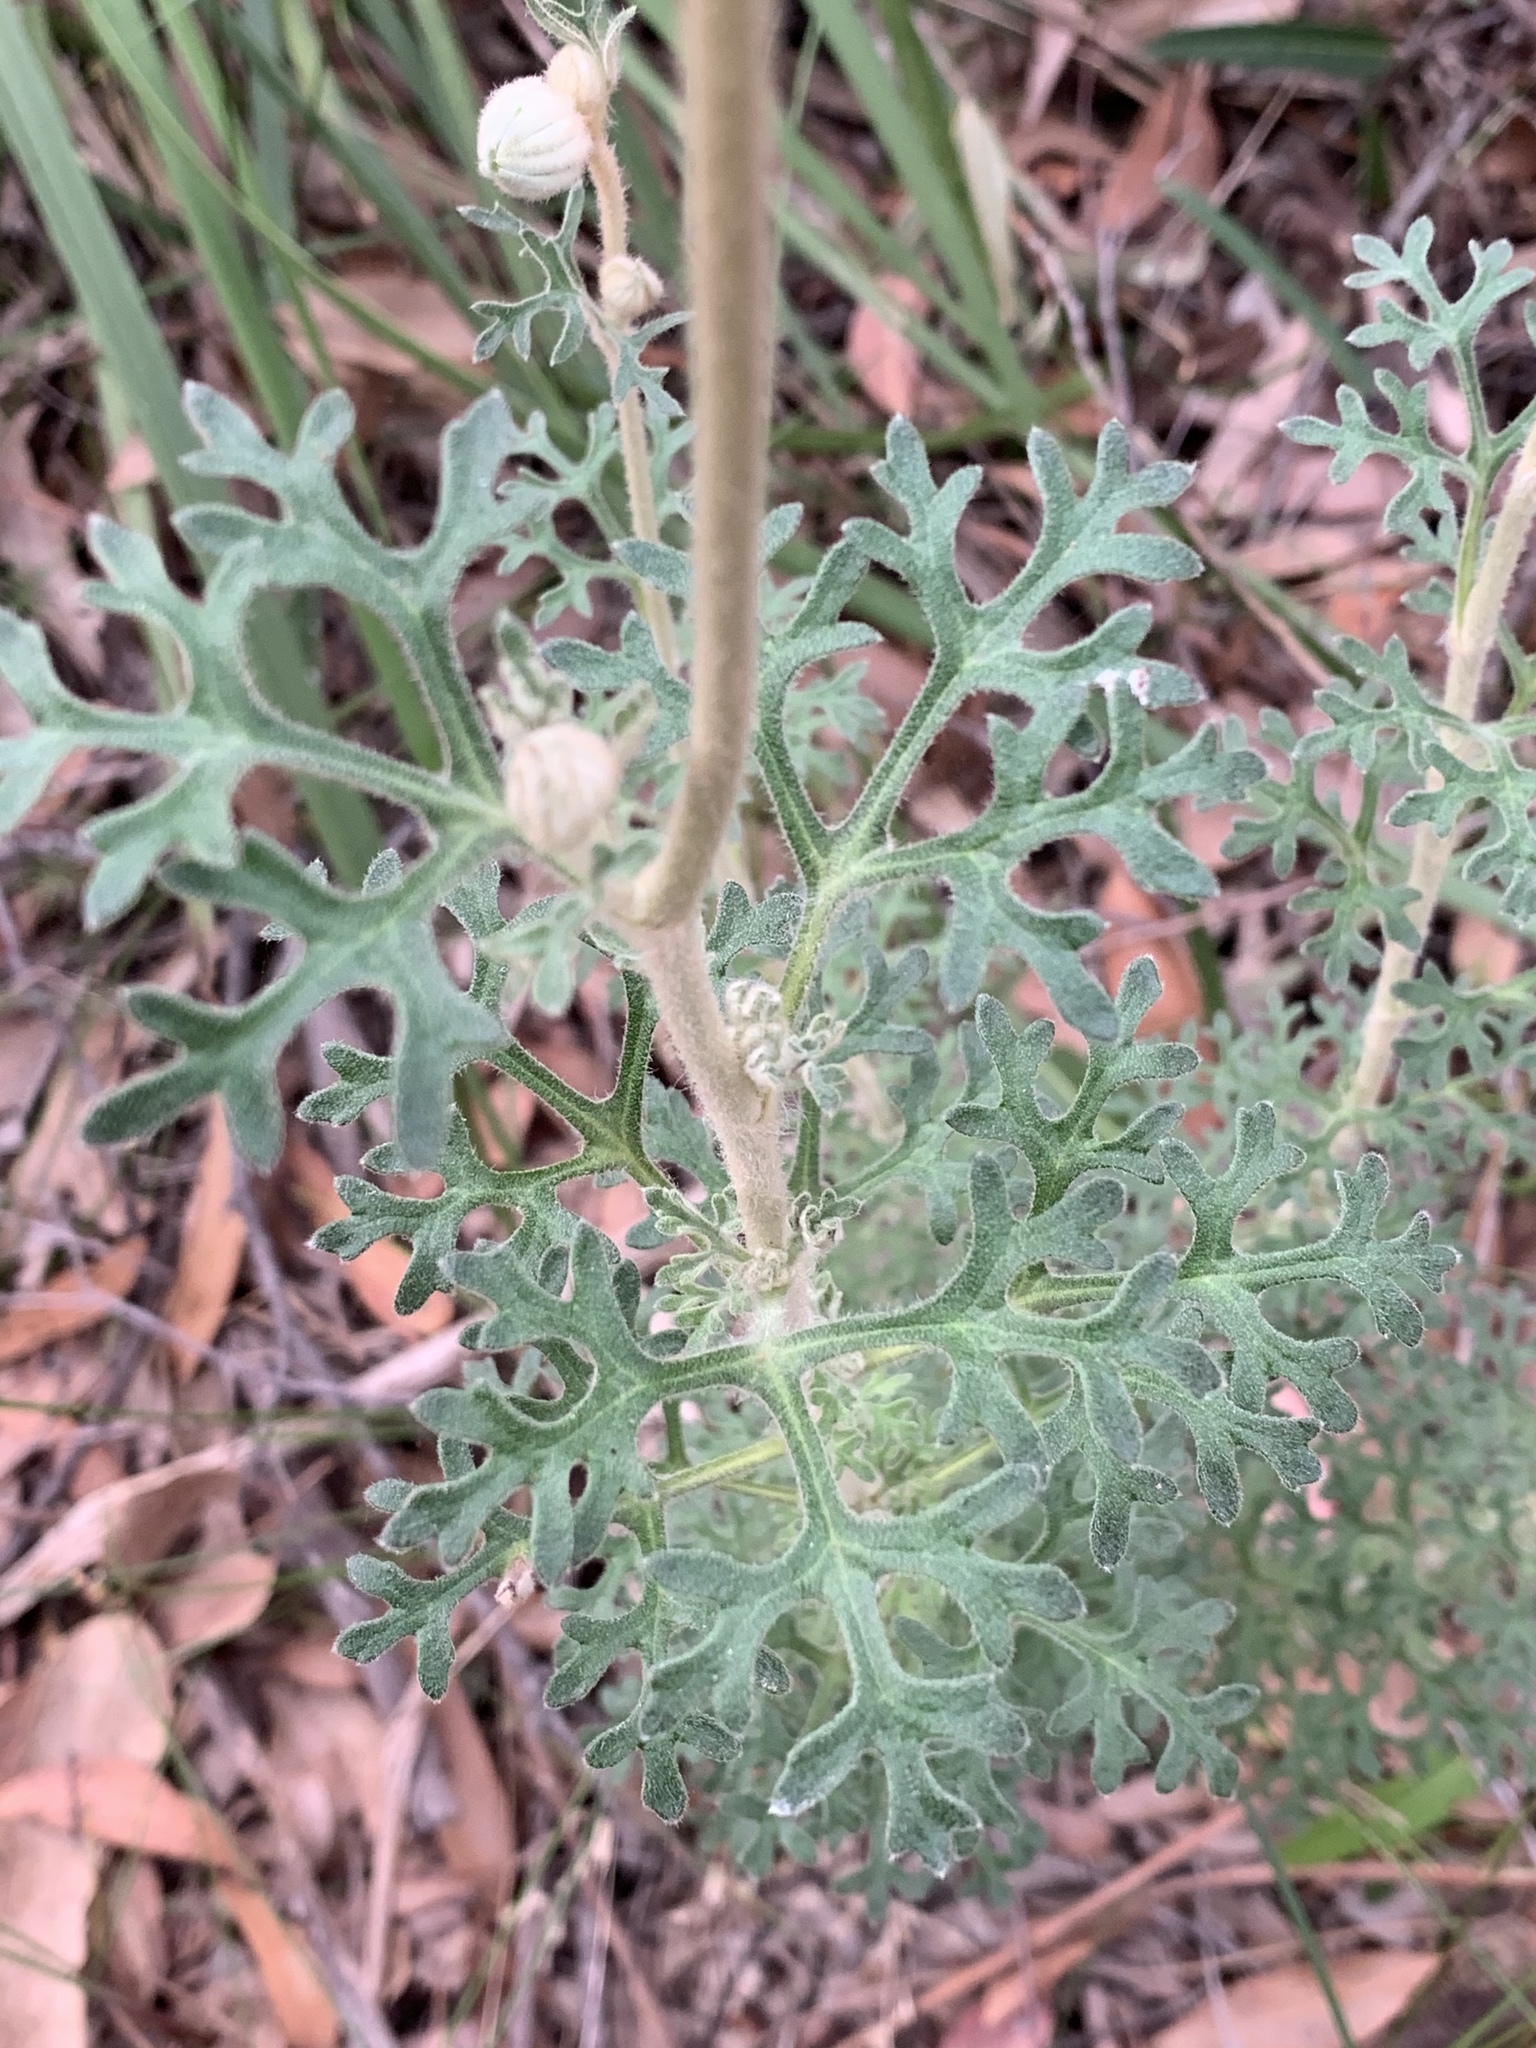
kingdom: Plantae
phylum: Tracheophyta
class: Magnoliopsida
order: Apiales
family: Apiaceae
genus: Actinotus
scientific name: Actinotus helianthi
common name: Flannel-flower
